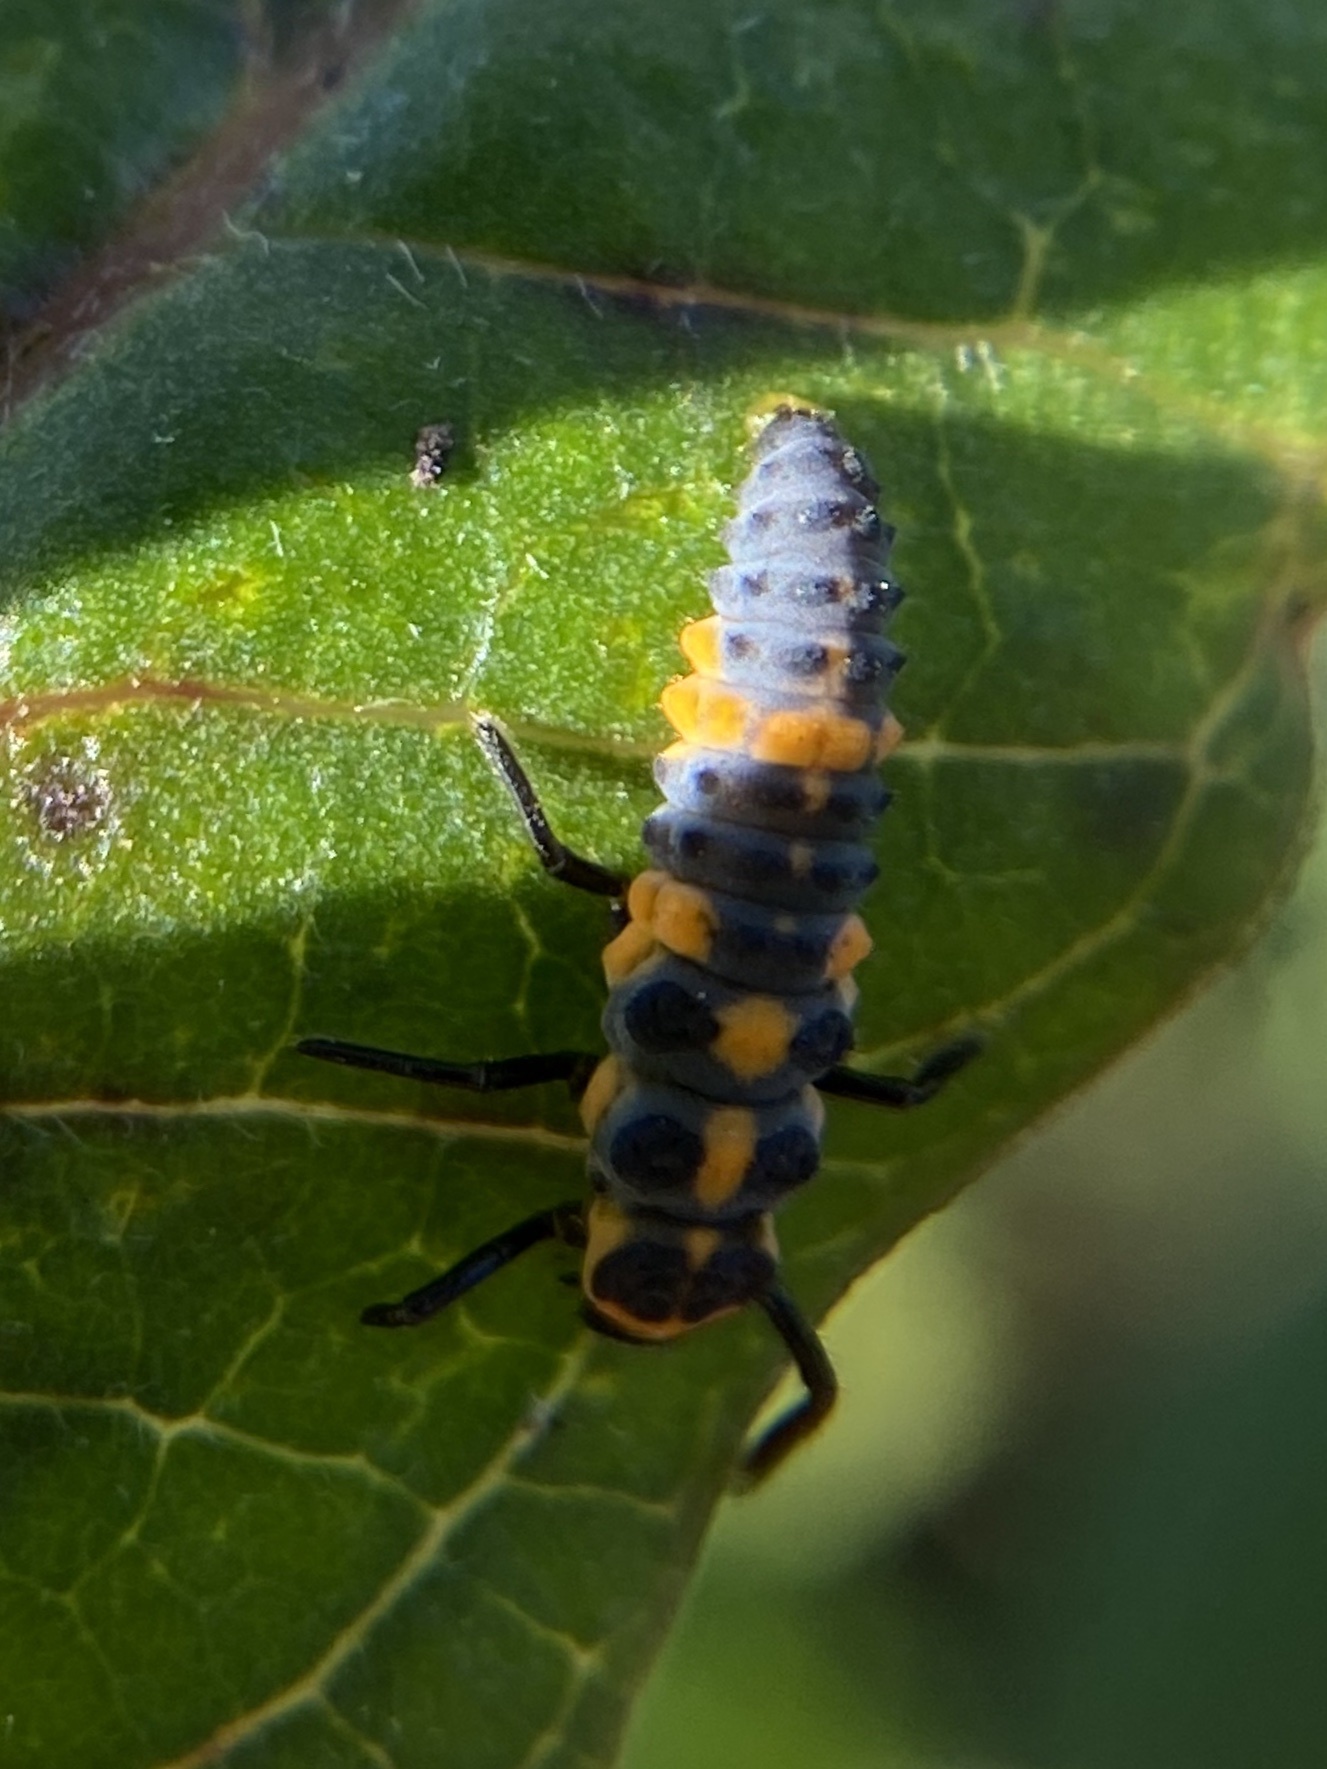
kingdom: Animalia
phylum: Arthropoda
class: Insecta
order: Coleoptera
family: Coccinellidae
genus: Cycloneda
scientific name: Cycloneda sanguinea
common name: Ladybird beetle
